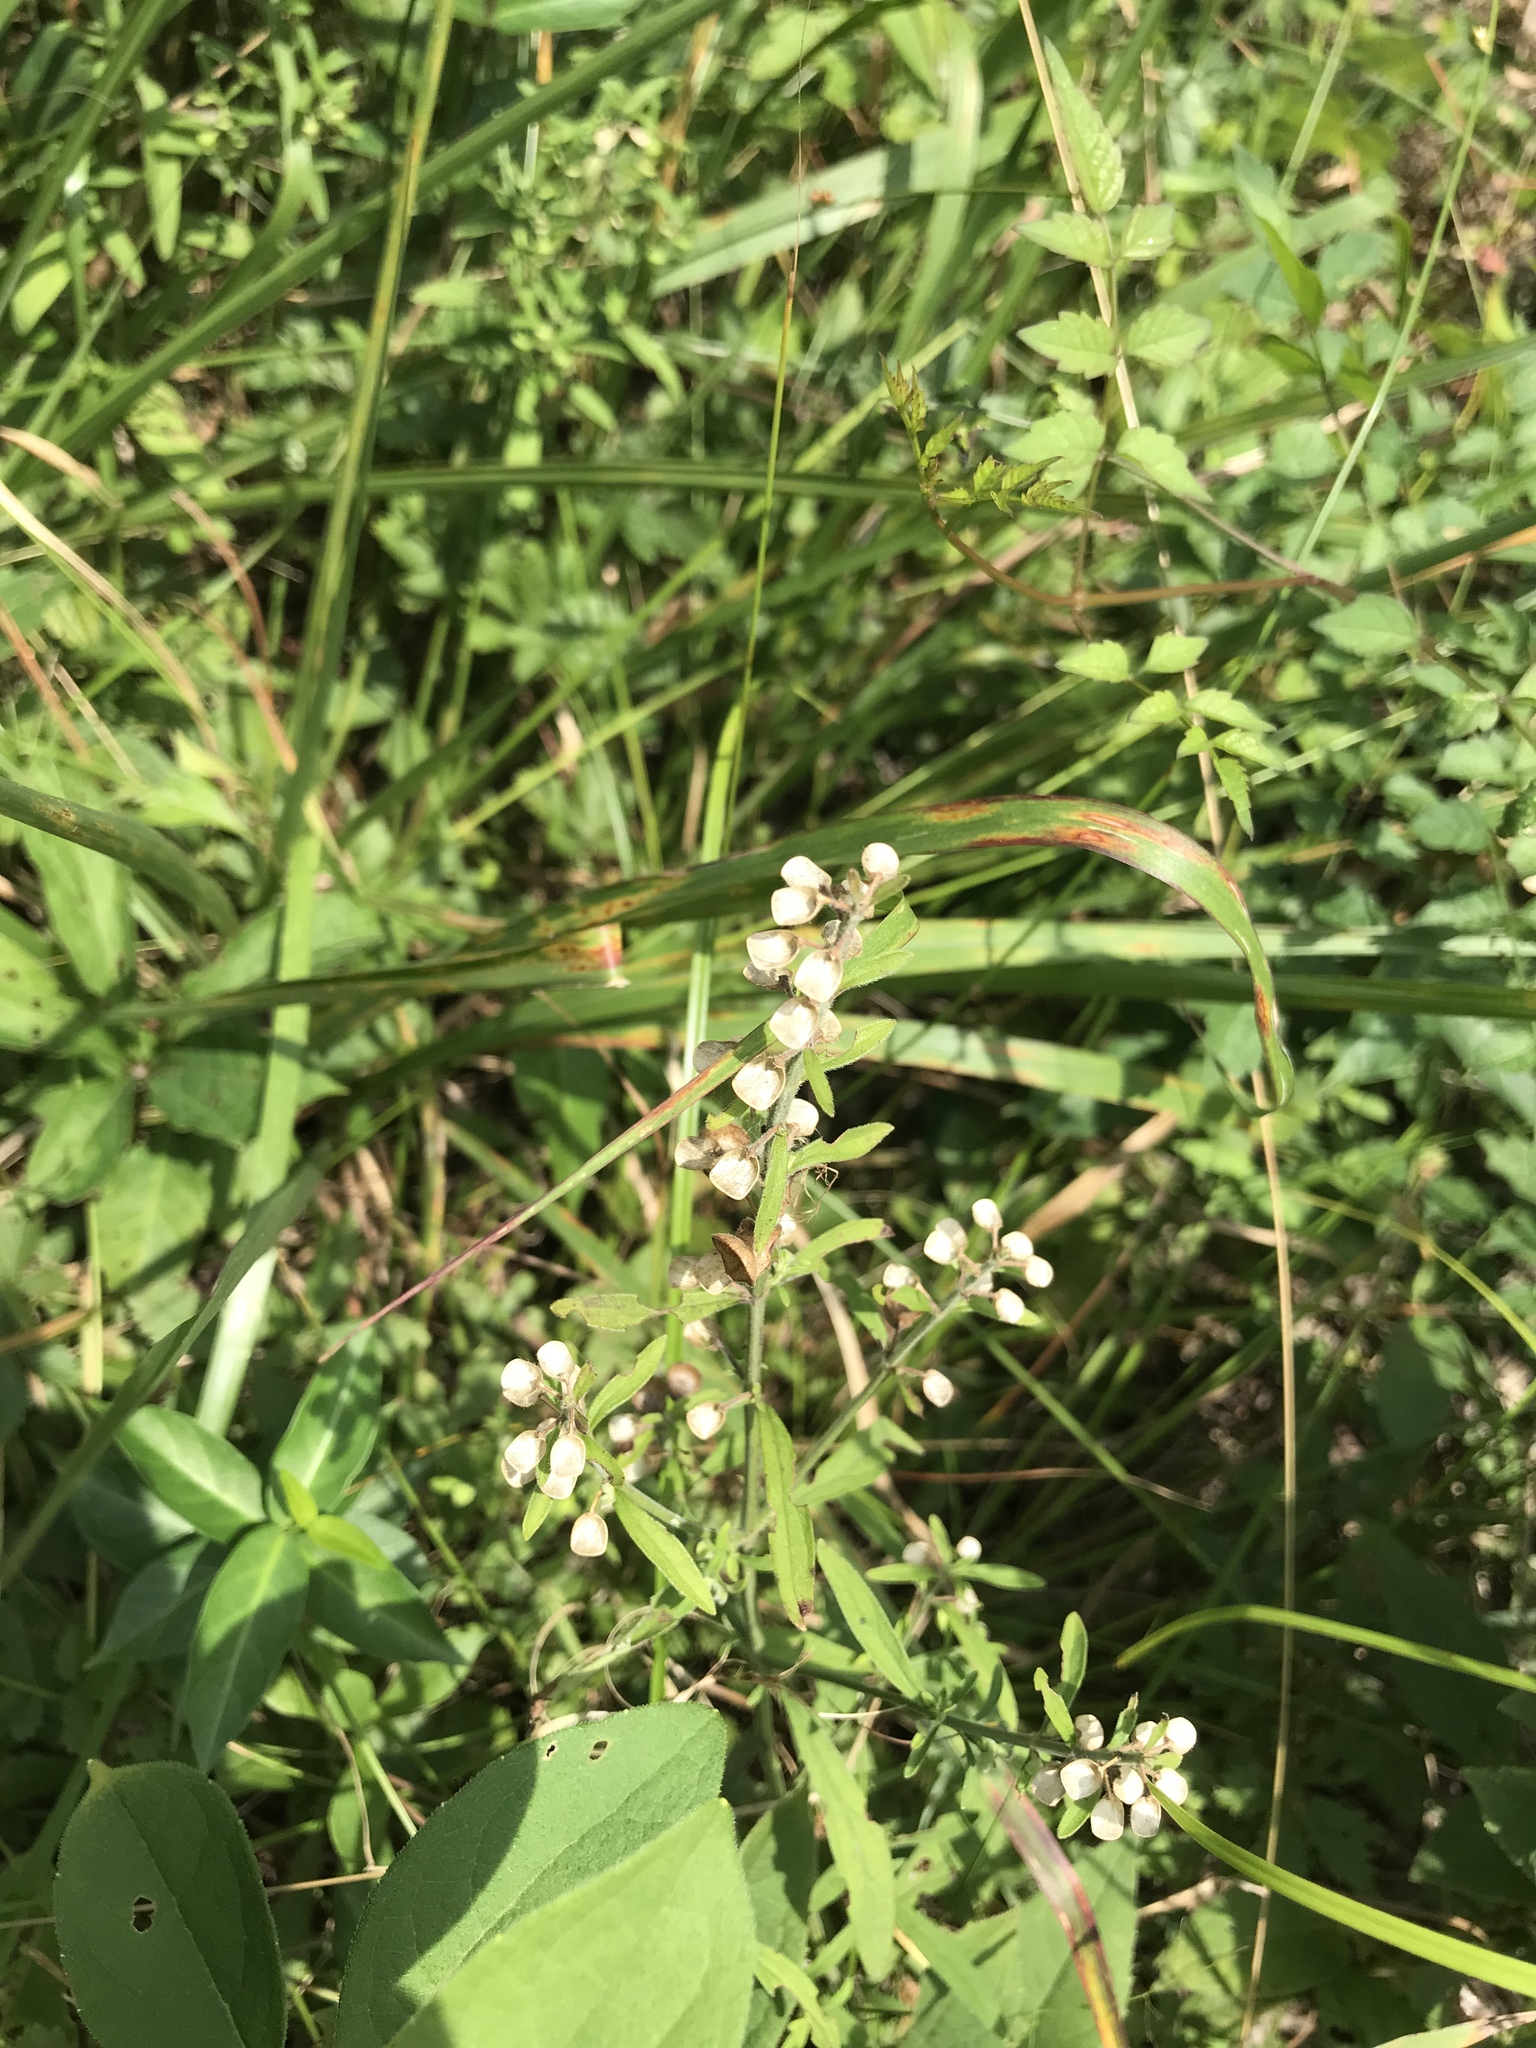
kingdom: Plantae
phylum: Tracheophyta
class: Magnoliopsida
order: Lamiales
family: Lamiaceae
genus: Scutellaria
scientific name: Scutellaria integrifolia
